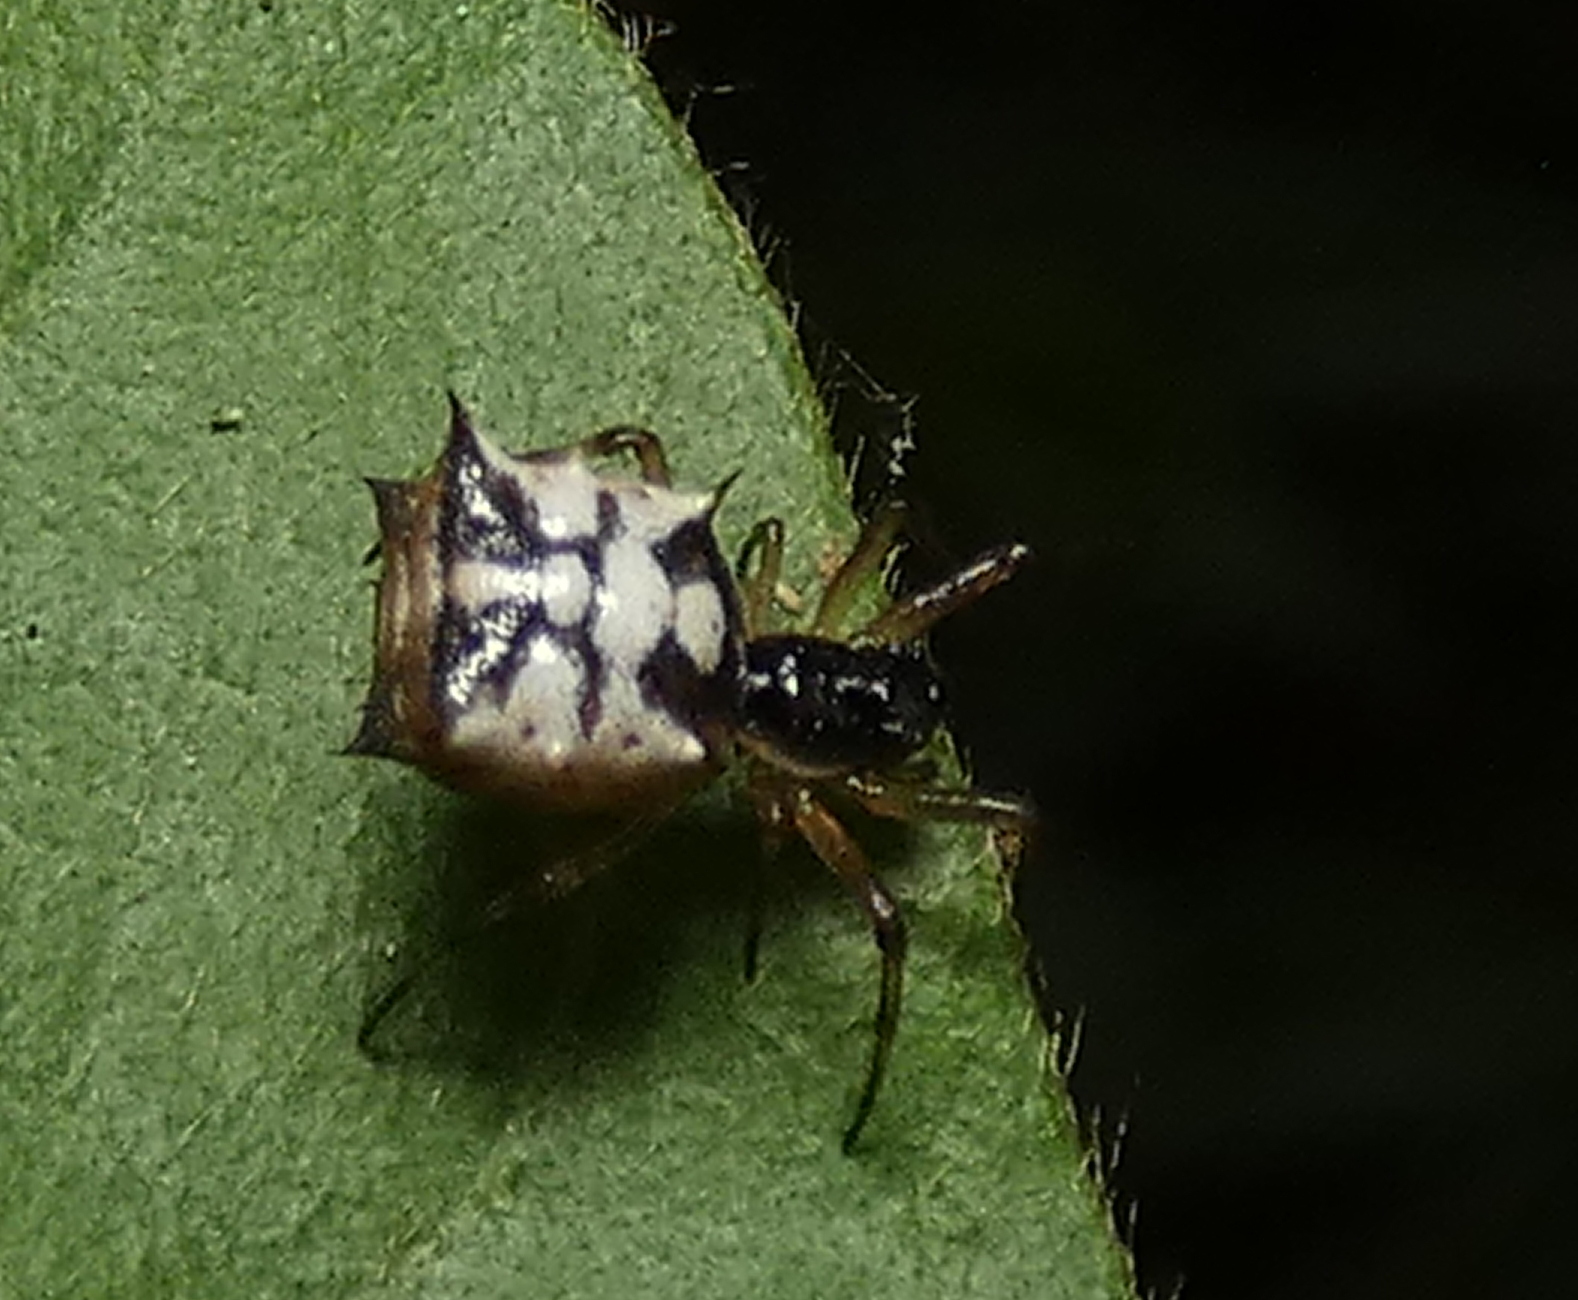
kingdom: Animalia
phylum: Arthropoda
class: Arachnida
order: Araneae
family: Araneidae
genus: Micrathena
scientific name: Micrathena picta
